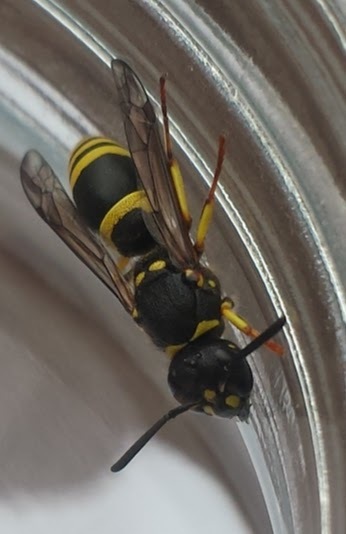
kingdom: Animalia
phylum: Arthropoda
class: Insecta
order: Hymenoptera
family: Vespidae
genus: Ancistrocerus
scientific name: Ancistrocerus gazella
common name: European tube wasp
